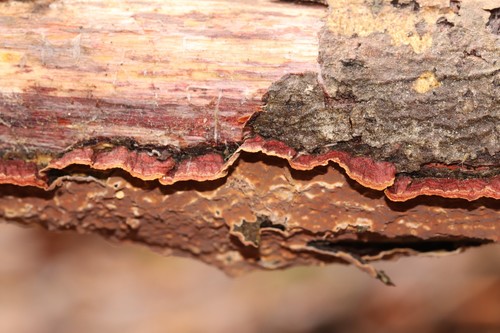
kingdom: Fungi
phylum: Basidiomycota
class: Agaricomycetes
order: Hymenochaetales
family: Hymenochaetaceae
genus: Hydnoporia
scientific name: Hydnoporia tabacina
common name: Willow glue
